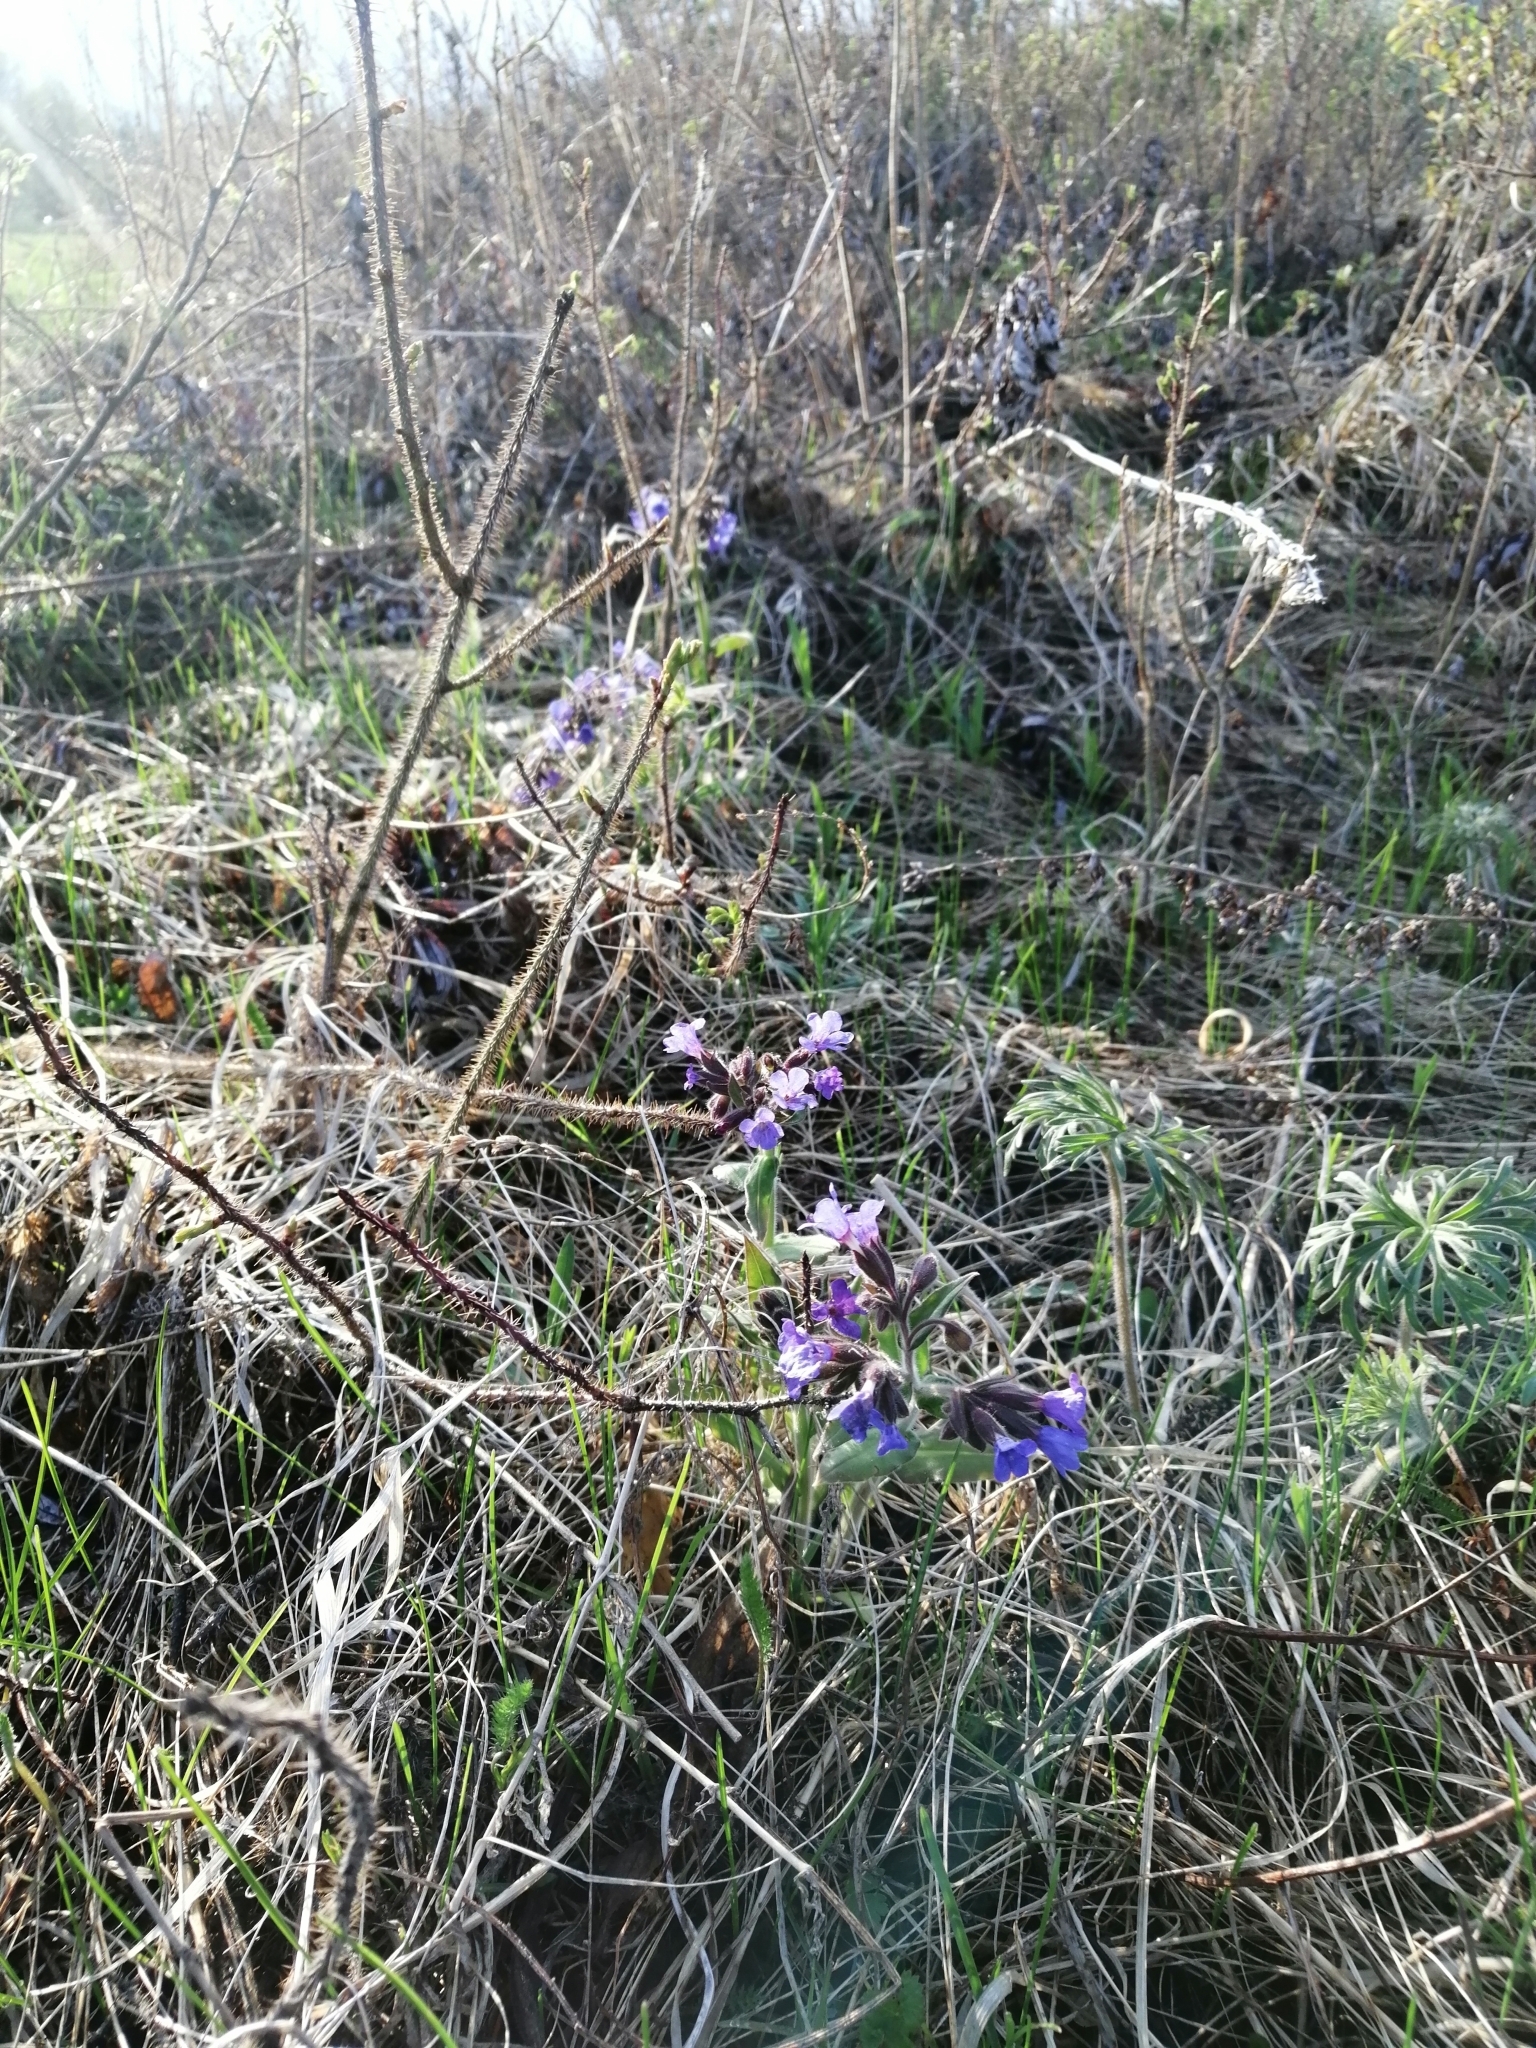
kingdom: Plantae
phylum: Tracheophyta
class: Magnoliopsida
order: Boraginales
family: Boraginaceae
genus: Pulmonaria
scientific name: Pulmonaria mollis
